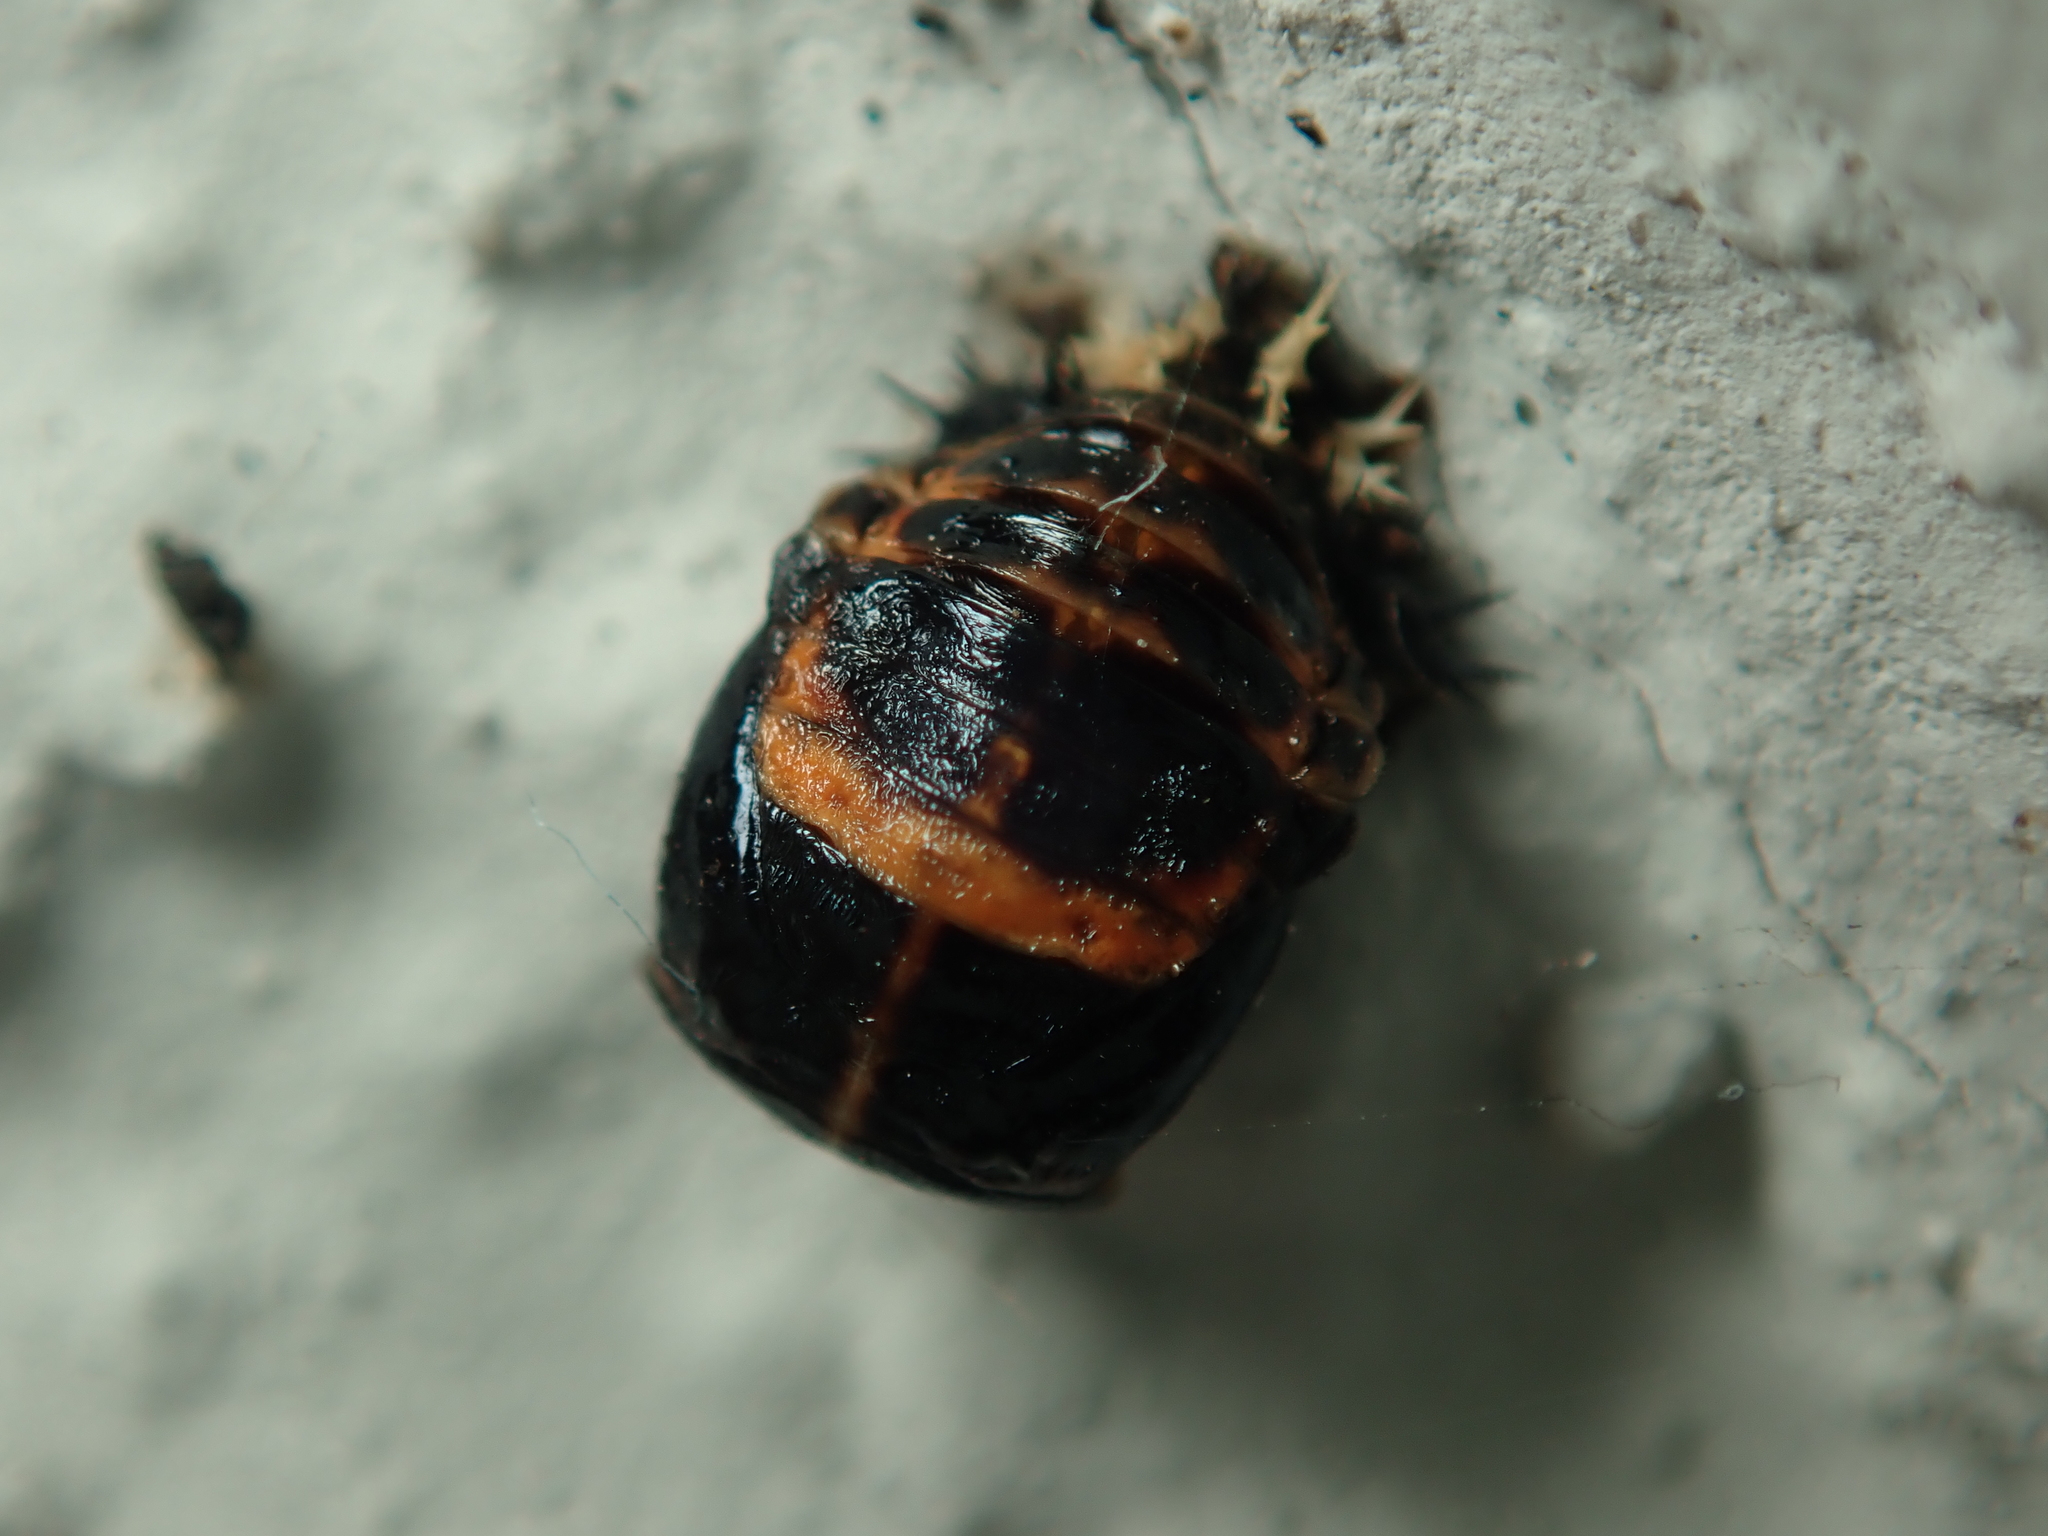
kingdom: Animalia
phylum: Arthropoda
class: Insecta
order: Coleoptera
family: Coccinellidae
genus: Harmonia
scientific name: Harmonia axyridis
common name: Harlequin ladybird
